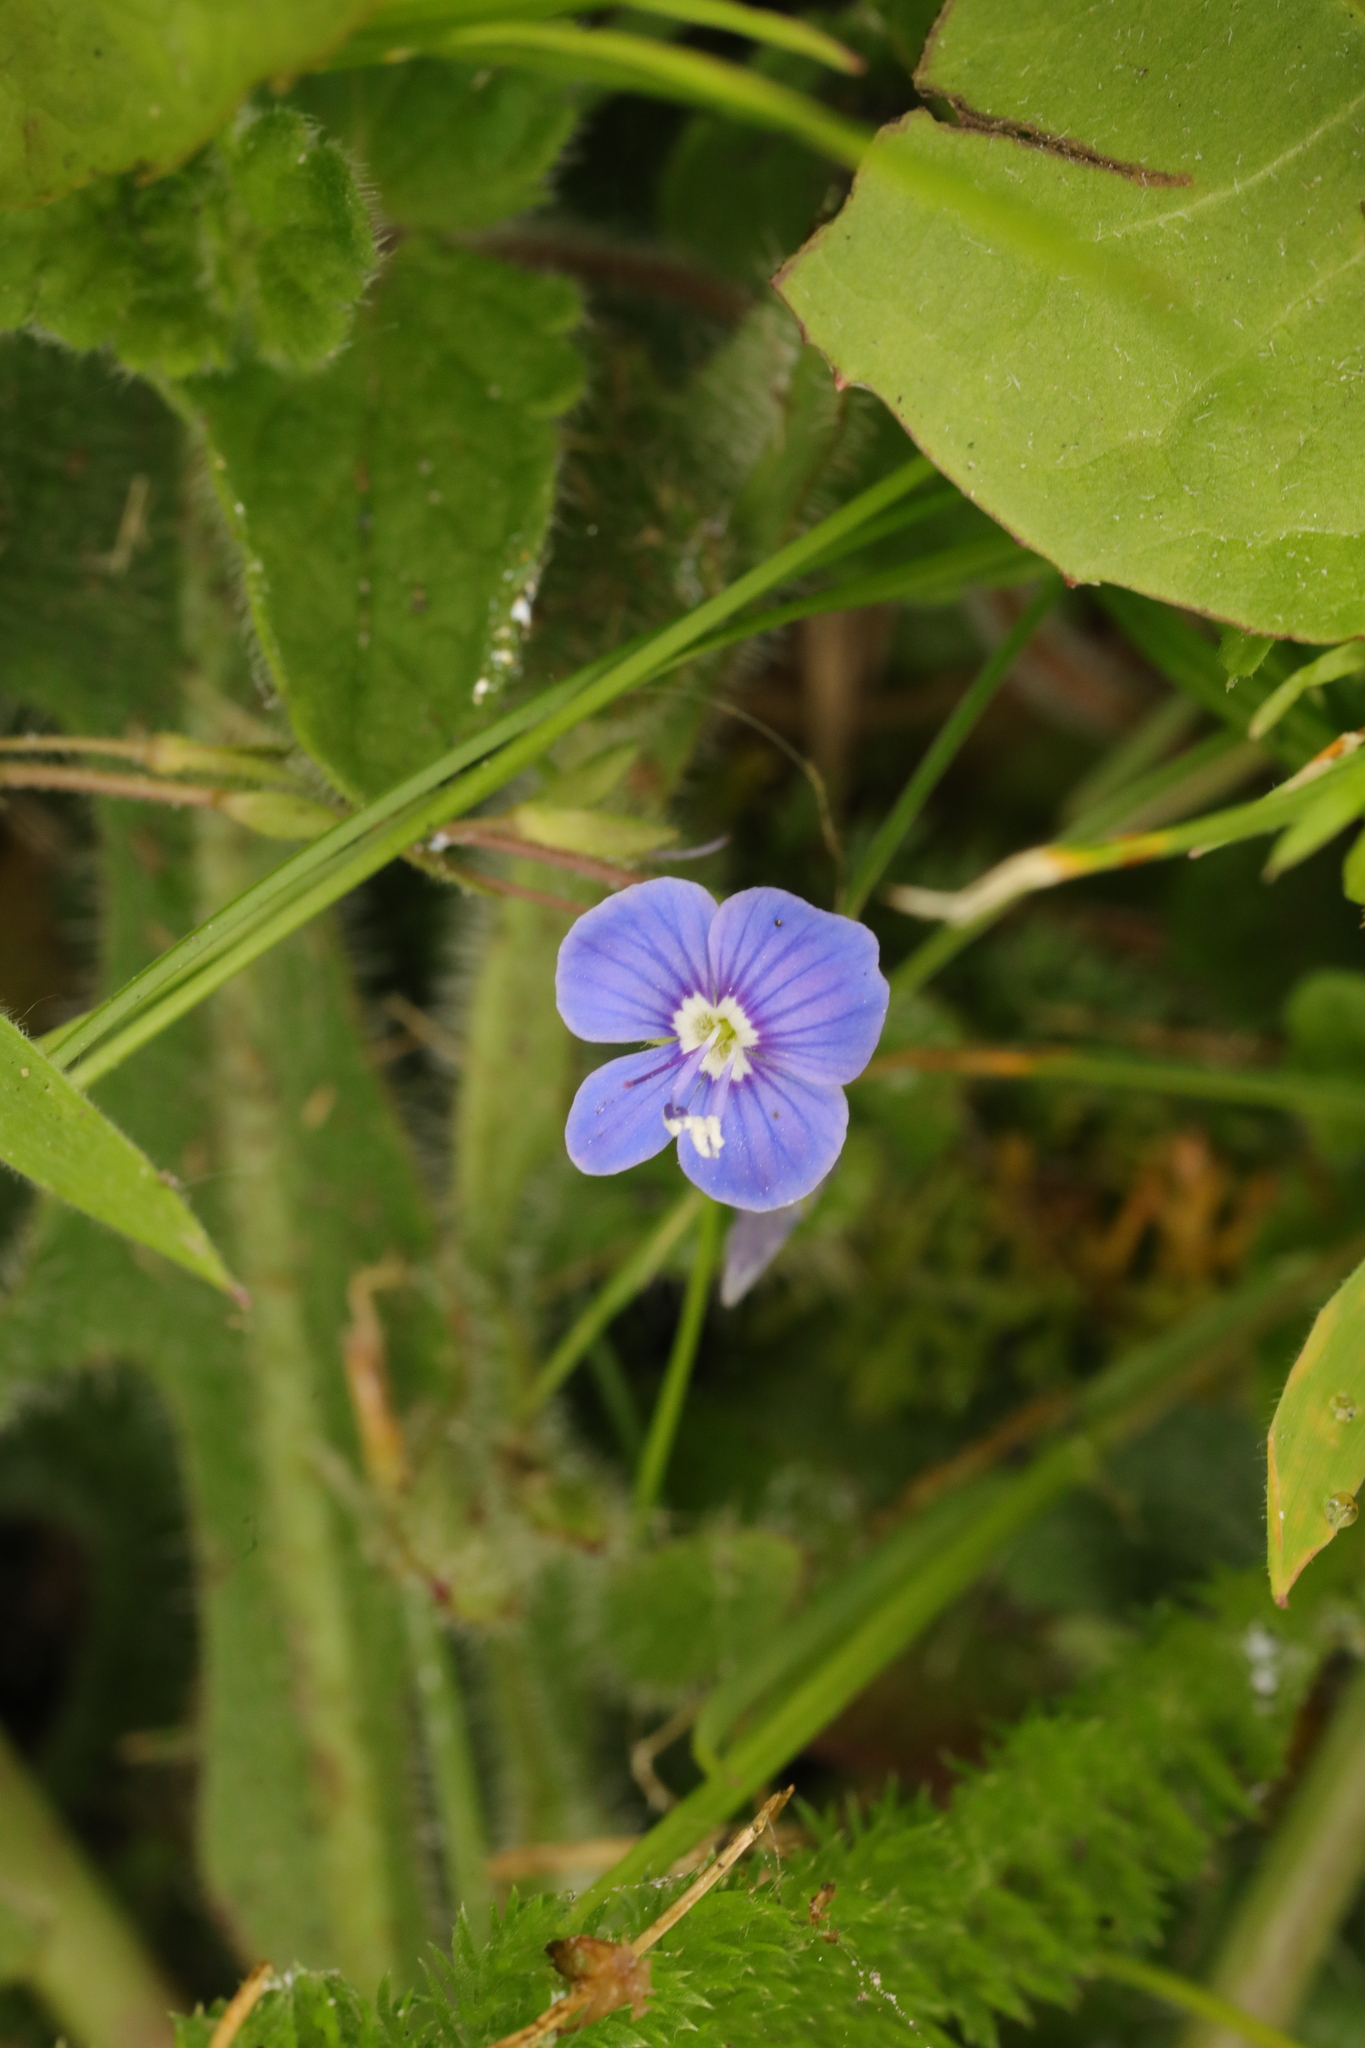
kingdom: Plantae
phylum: Tracheophyta
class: Magnoliopsida
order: Lamiales
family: Plantaginaceae
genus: Veronica
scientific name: Veronica chamaedrys
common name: Germander speedwell
